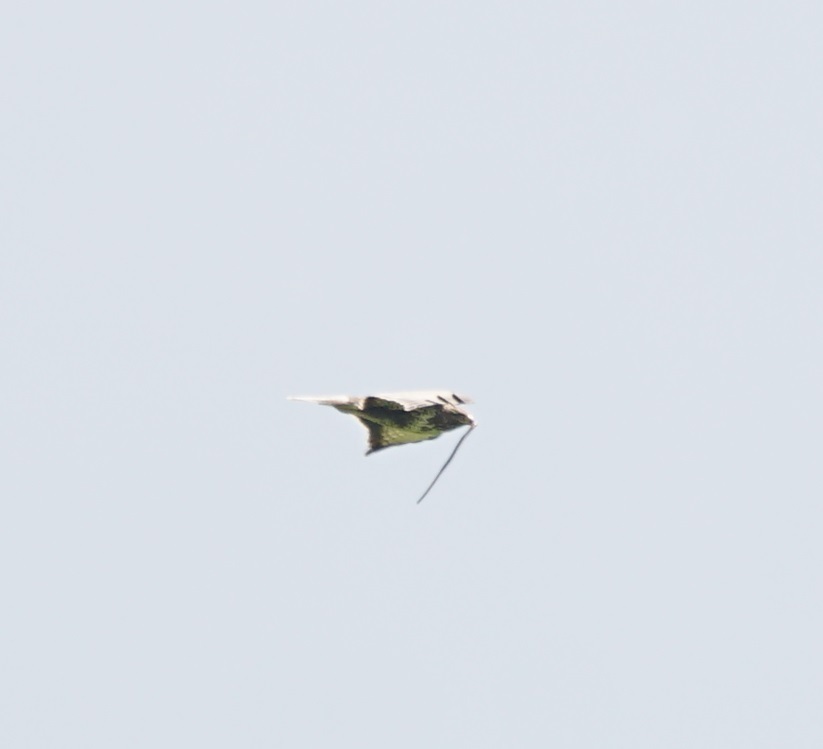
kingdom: Animalia
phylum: Chordata
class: Aves
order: Accipitriformes
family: Accipitridae
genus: Buteo
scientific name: Buteo buteo
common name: Common buzzard
